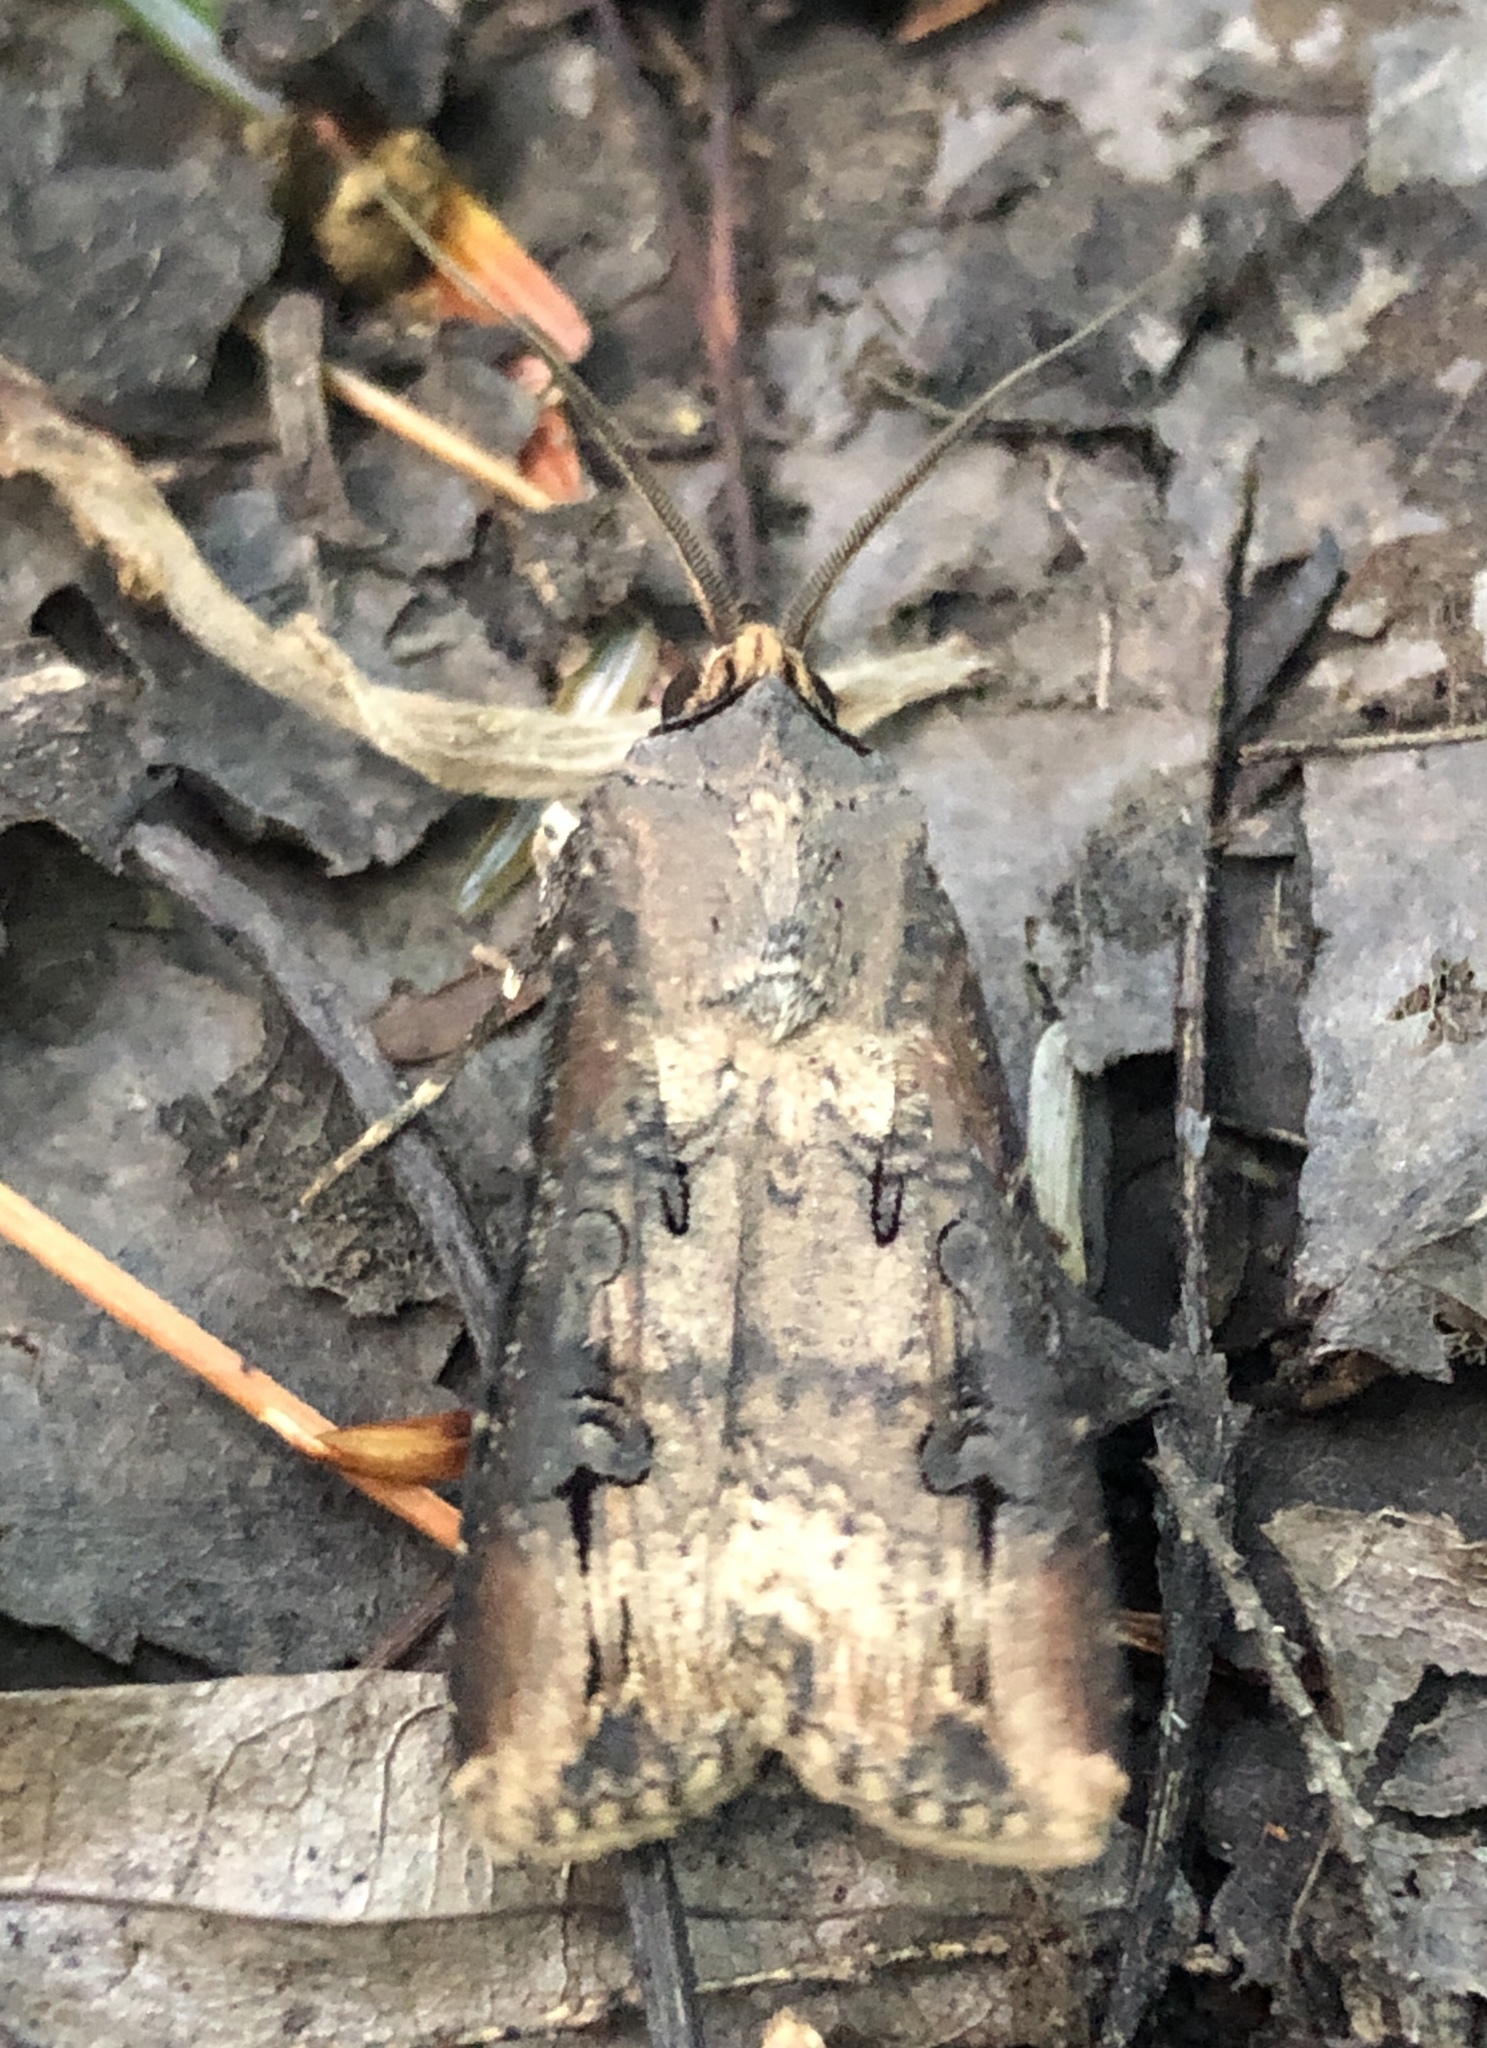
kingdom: Animalia
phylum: Arthropoda
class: Insecta
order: Lepidoptera
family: Noctuidae
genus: Agrotis
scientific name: Agrotis ipsilon
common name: Dark sword-grass
